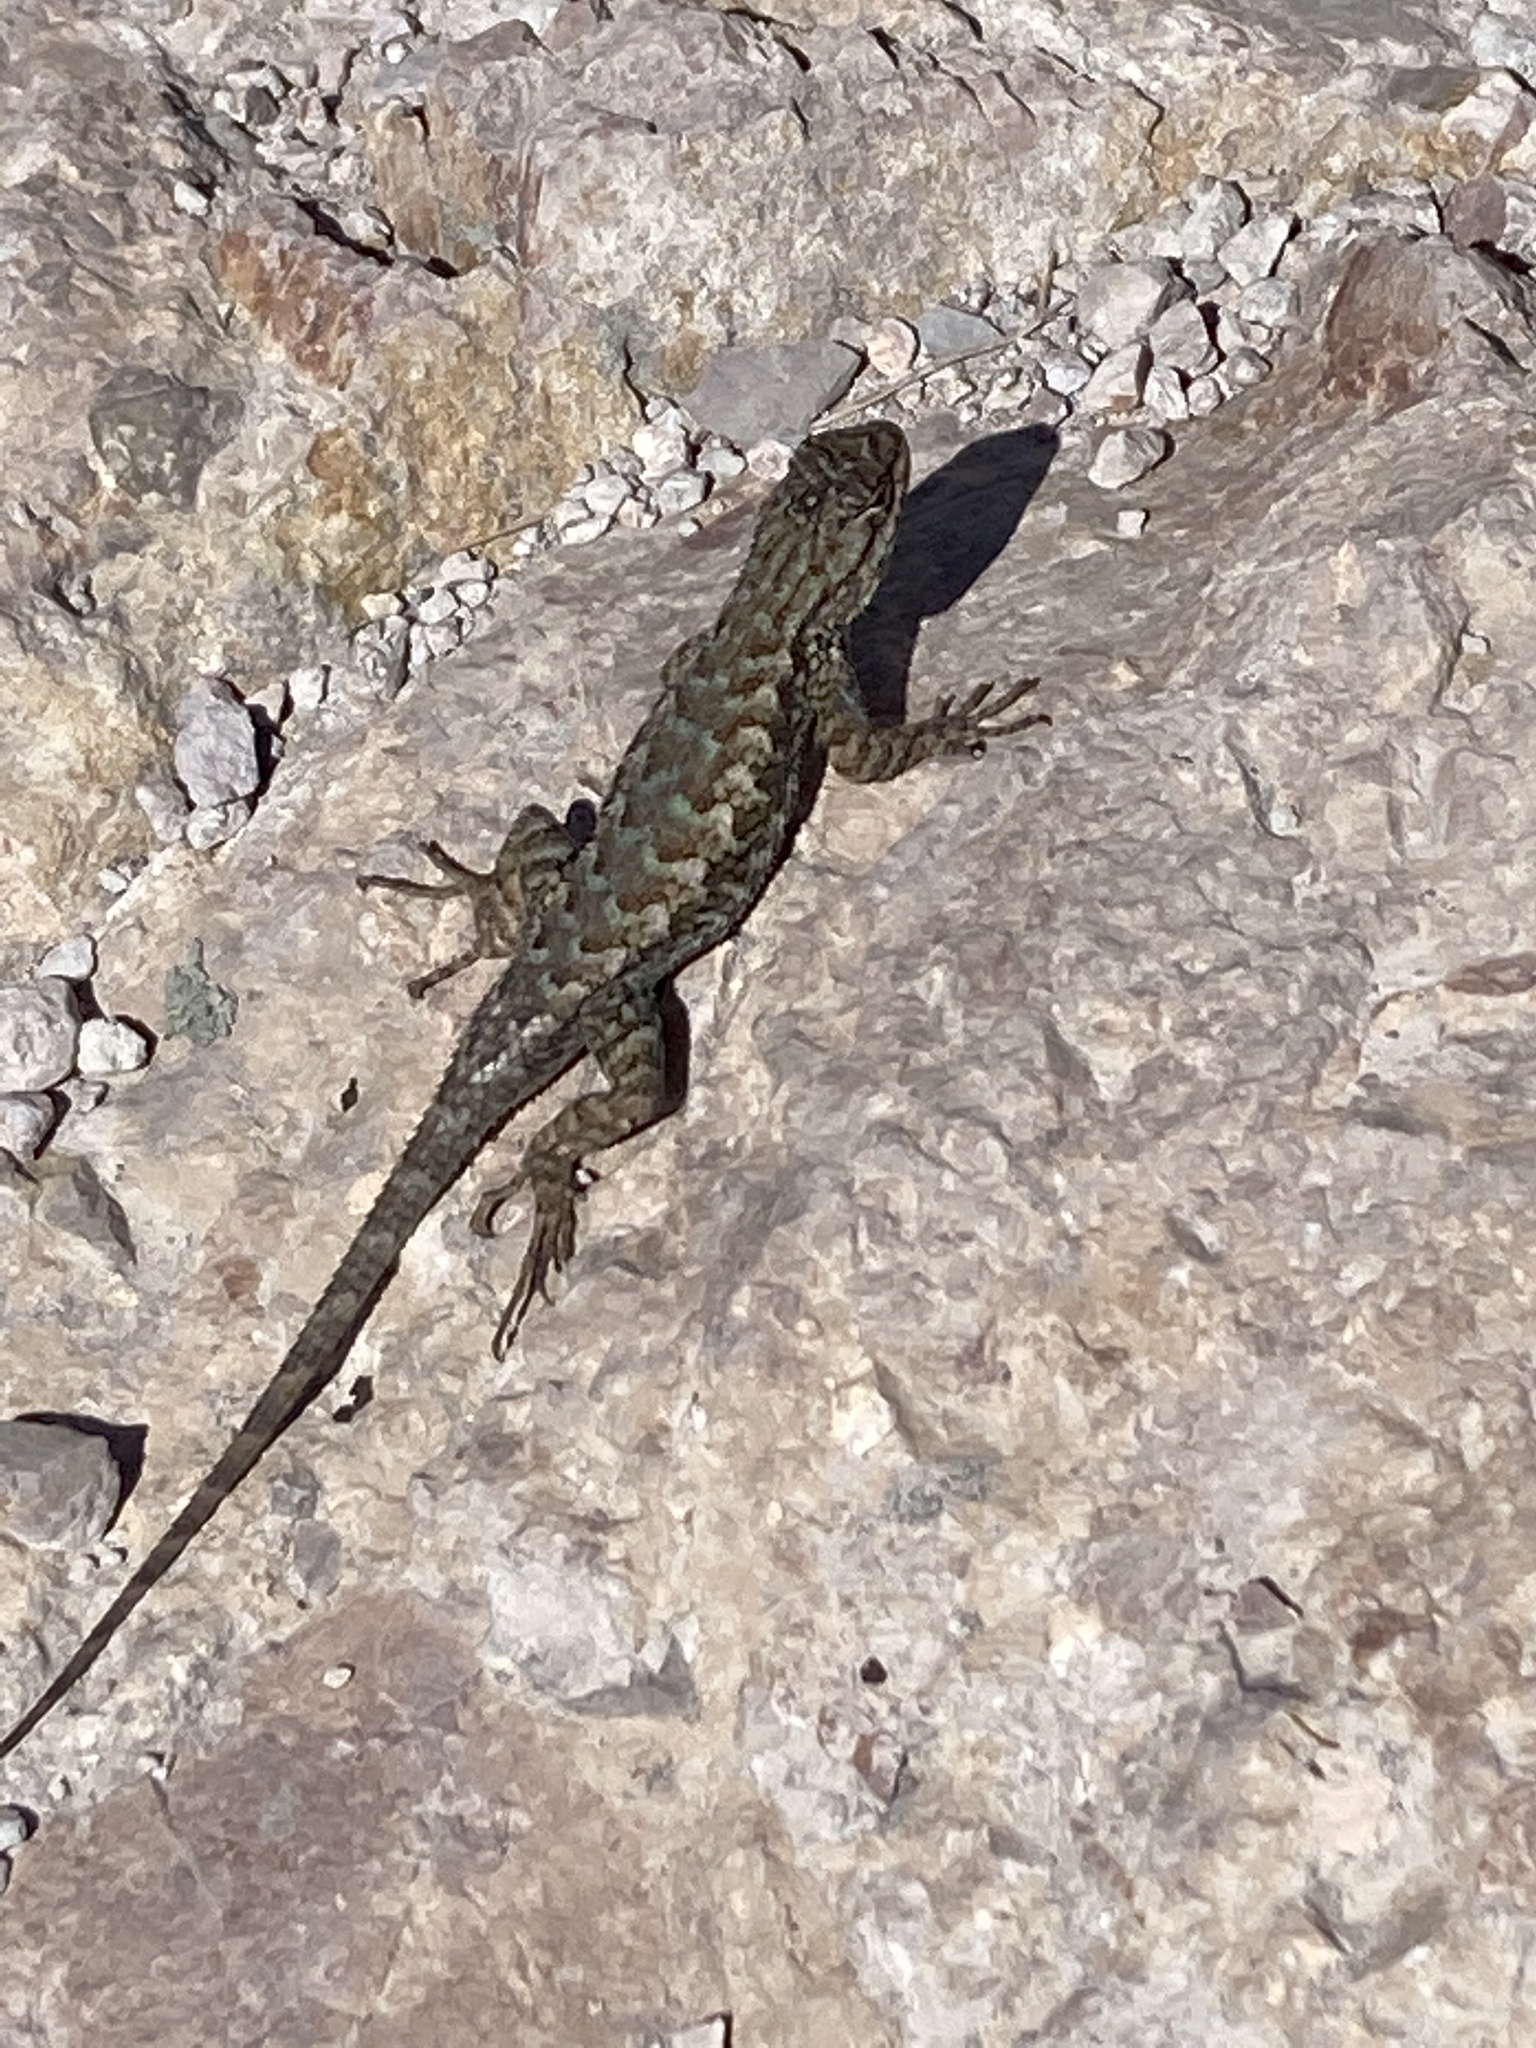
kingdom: Animalia
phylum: Chordata
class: Squamata
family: Phrynosomatidae
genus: Sceloporus
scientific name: Sceloporus occidentalis
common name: Western fence lizard
